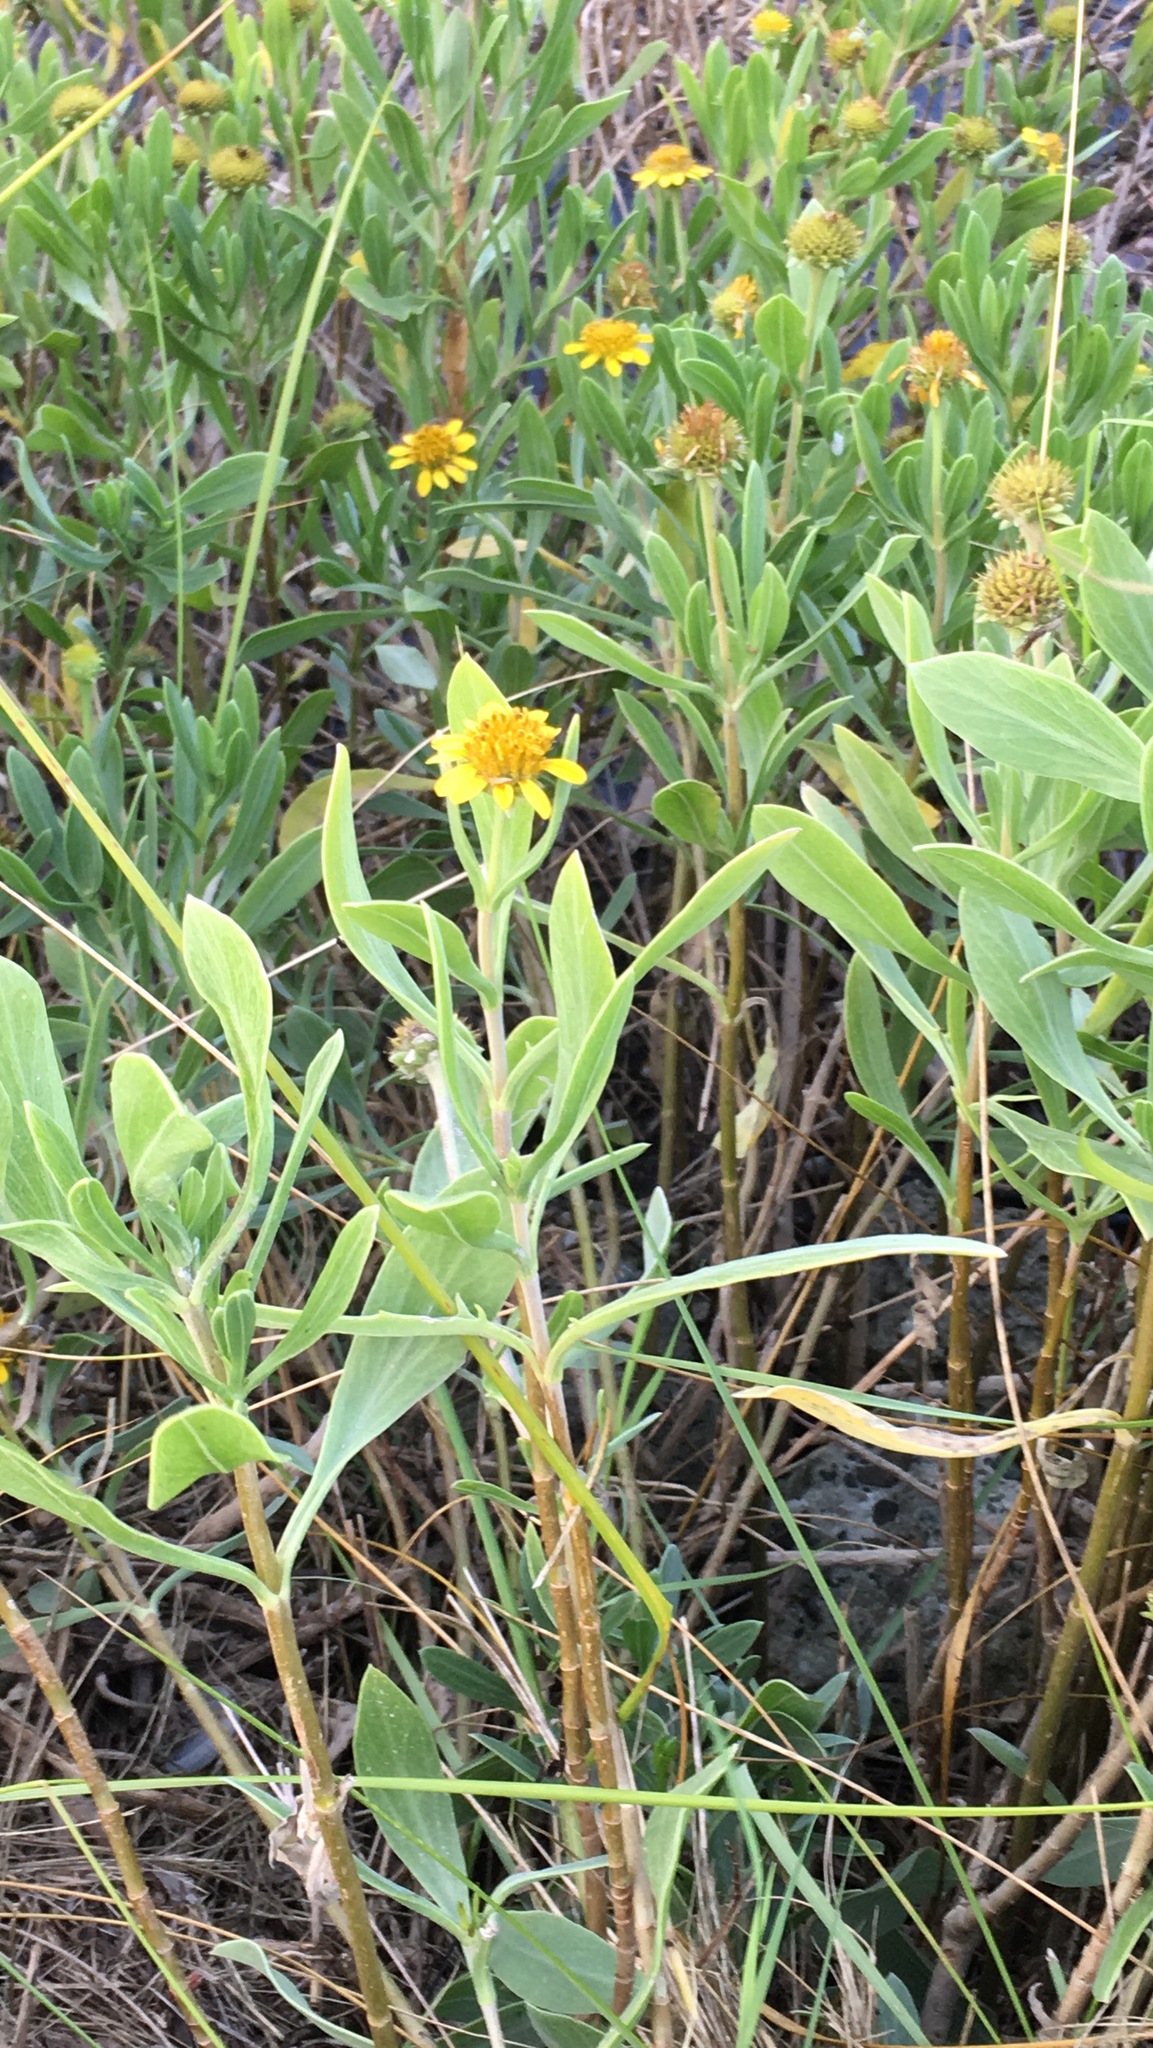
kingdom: Plantae
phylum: Tracheophyta
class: Magnoliopsida
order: Asterales
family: Asteraceae
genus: Borrichia
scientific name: Borrichia frutescens
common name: Sea oxeye
